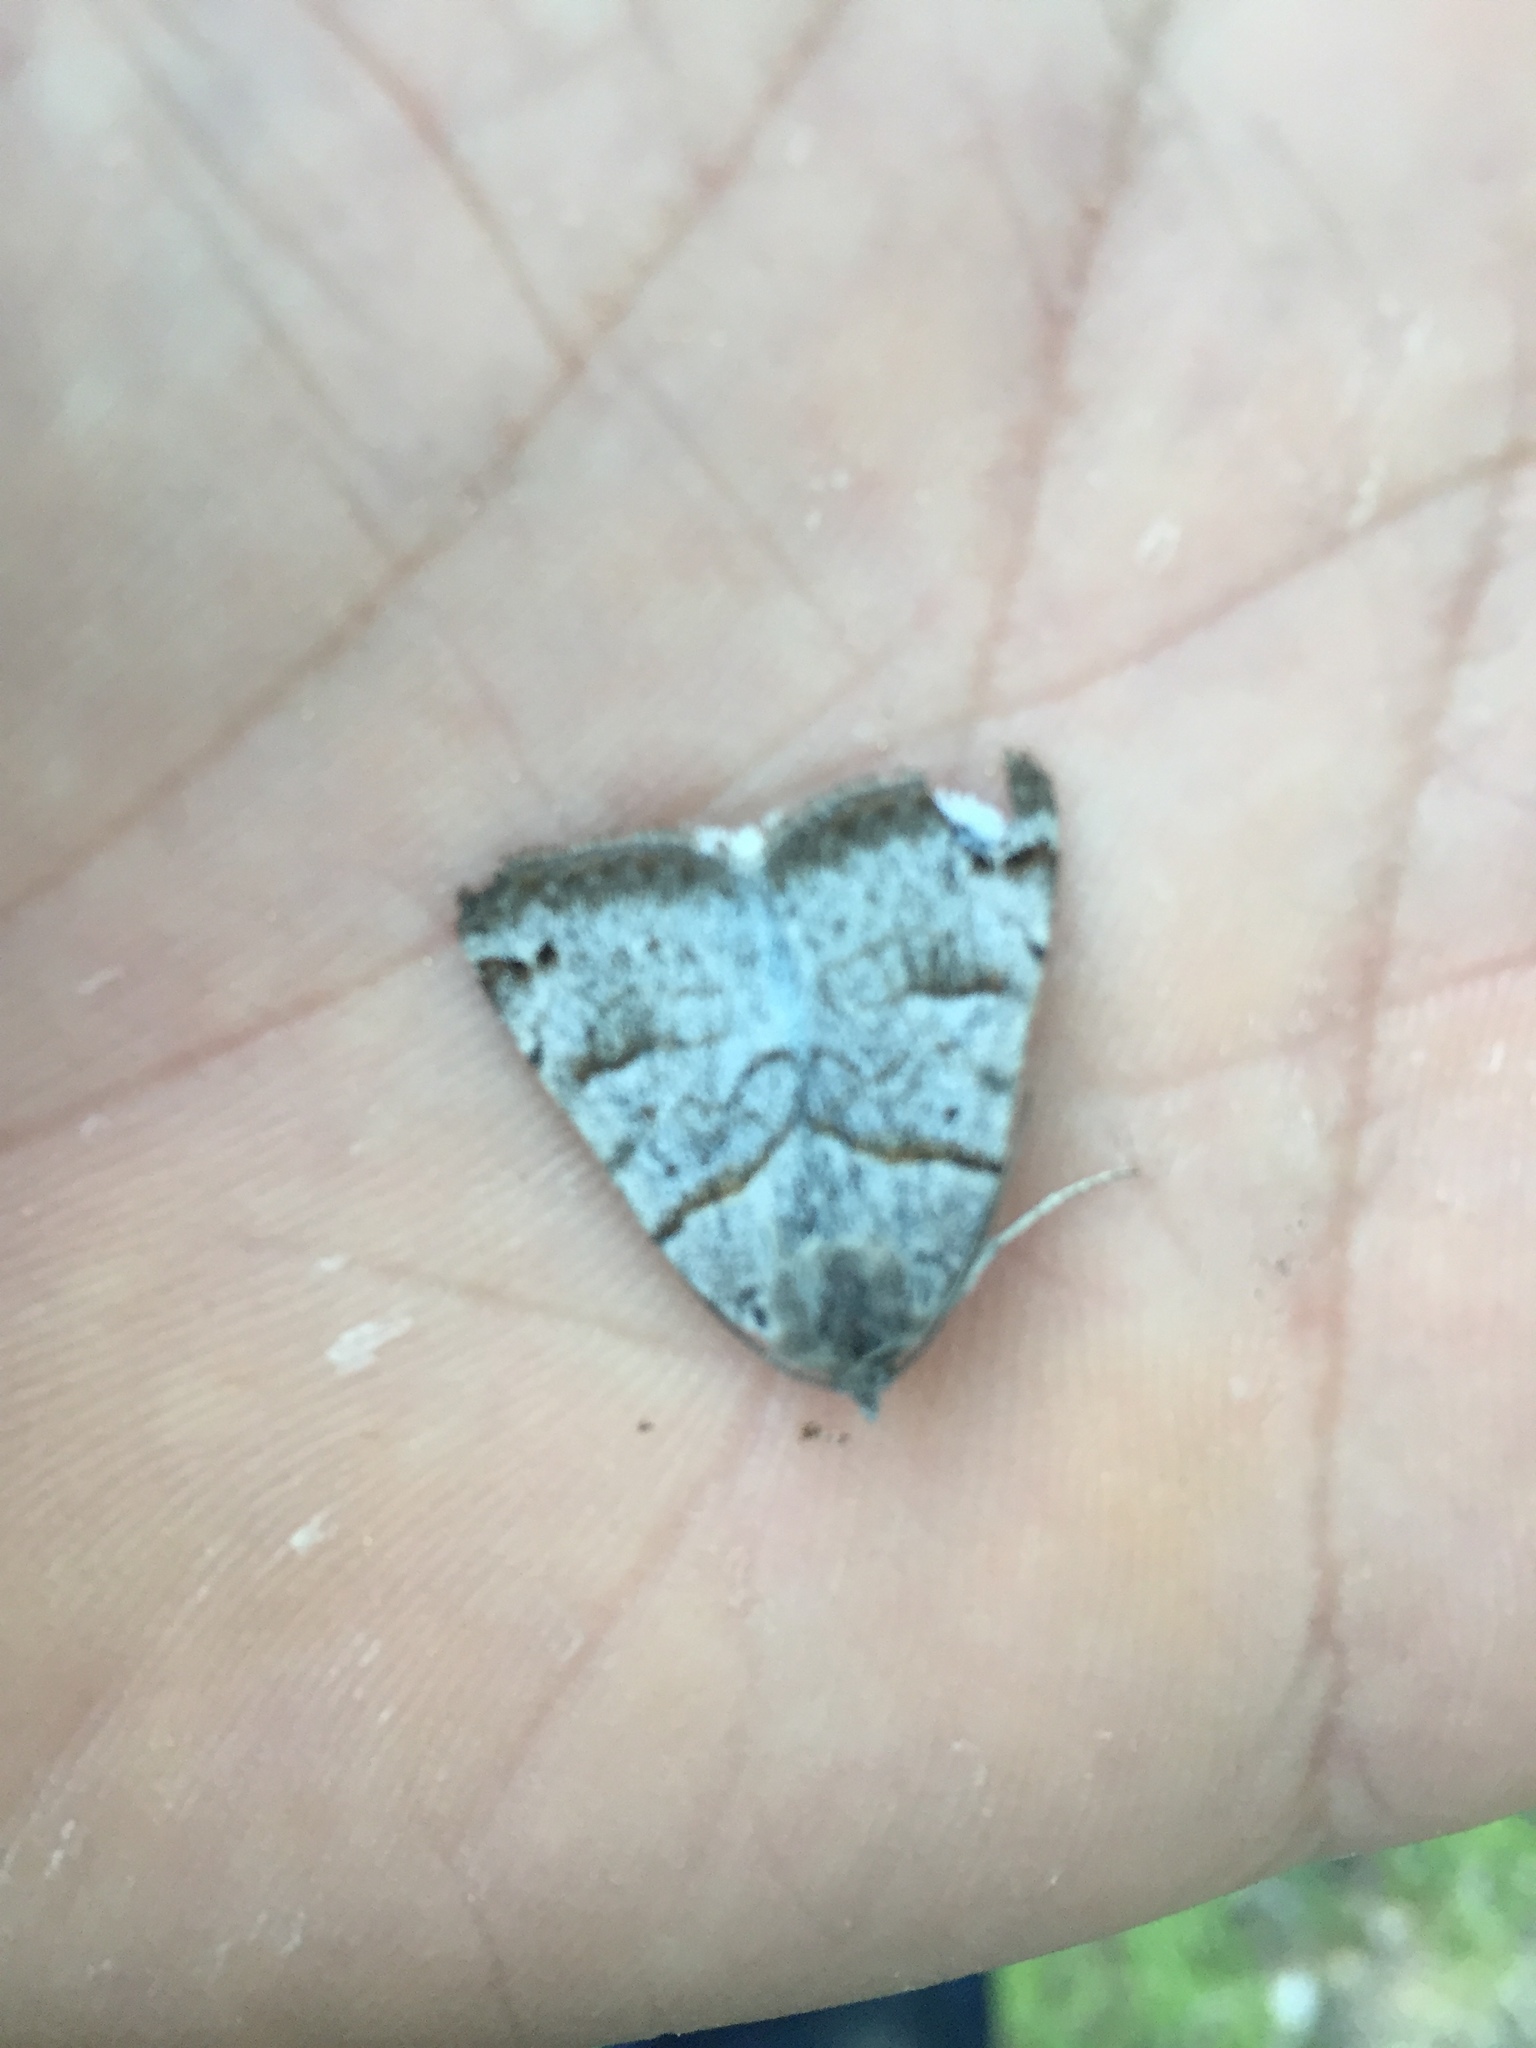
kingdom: Animalia
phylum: Arthropoda
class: Insecta
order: Lepidoptera
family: Erebidae
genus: Caenurgina
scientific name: Caenurgina caerulea
